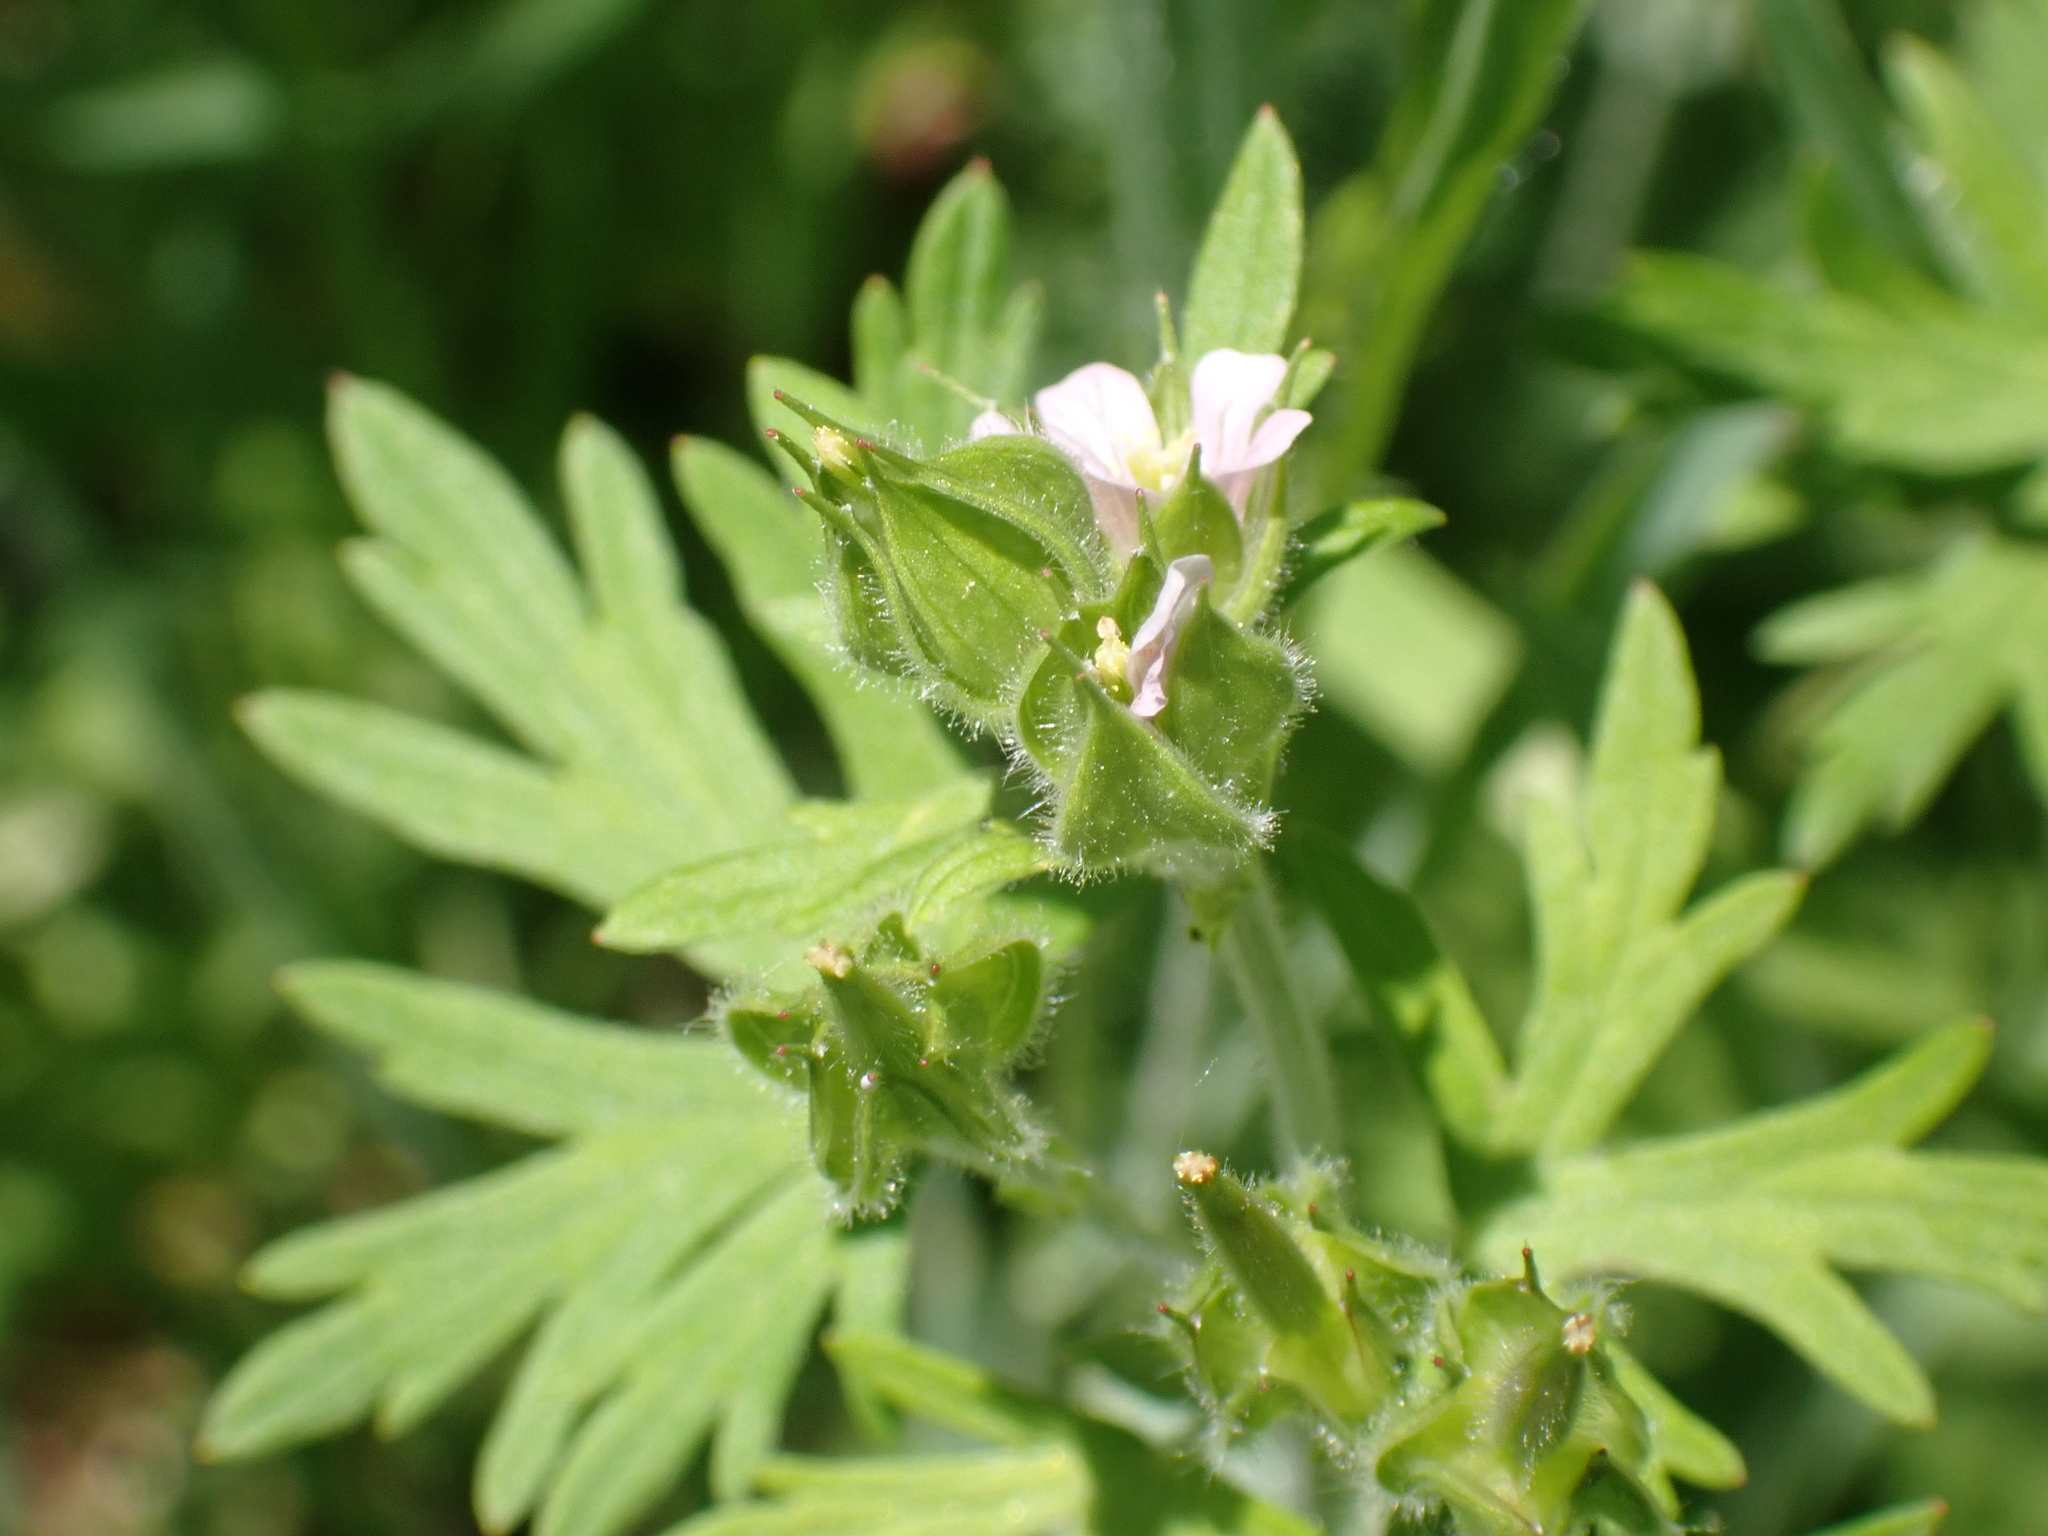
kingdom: Plantae
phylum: Tracheophyta
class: Magnoliopsida
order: Geraniales
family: Geraniaceae
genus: Geranium
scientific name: Geranium carolinianum
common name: Carolina crane's-bill
